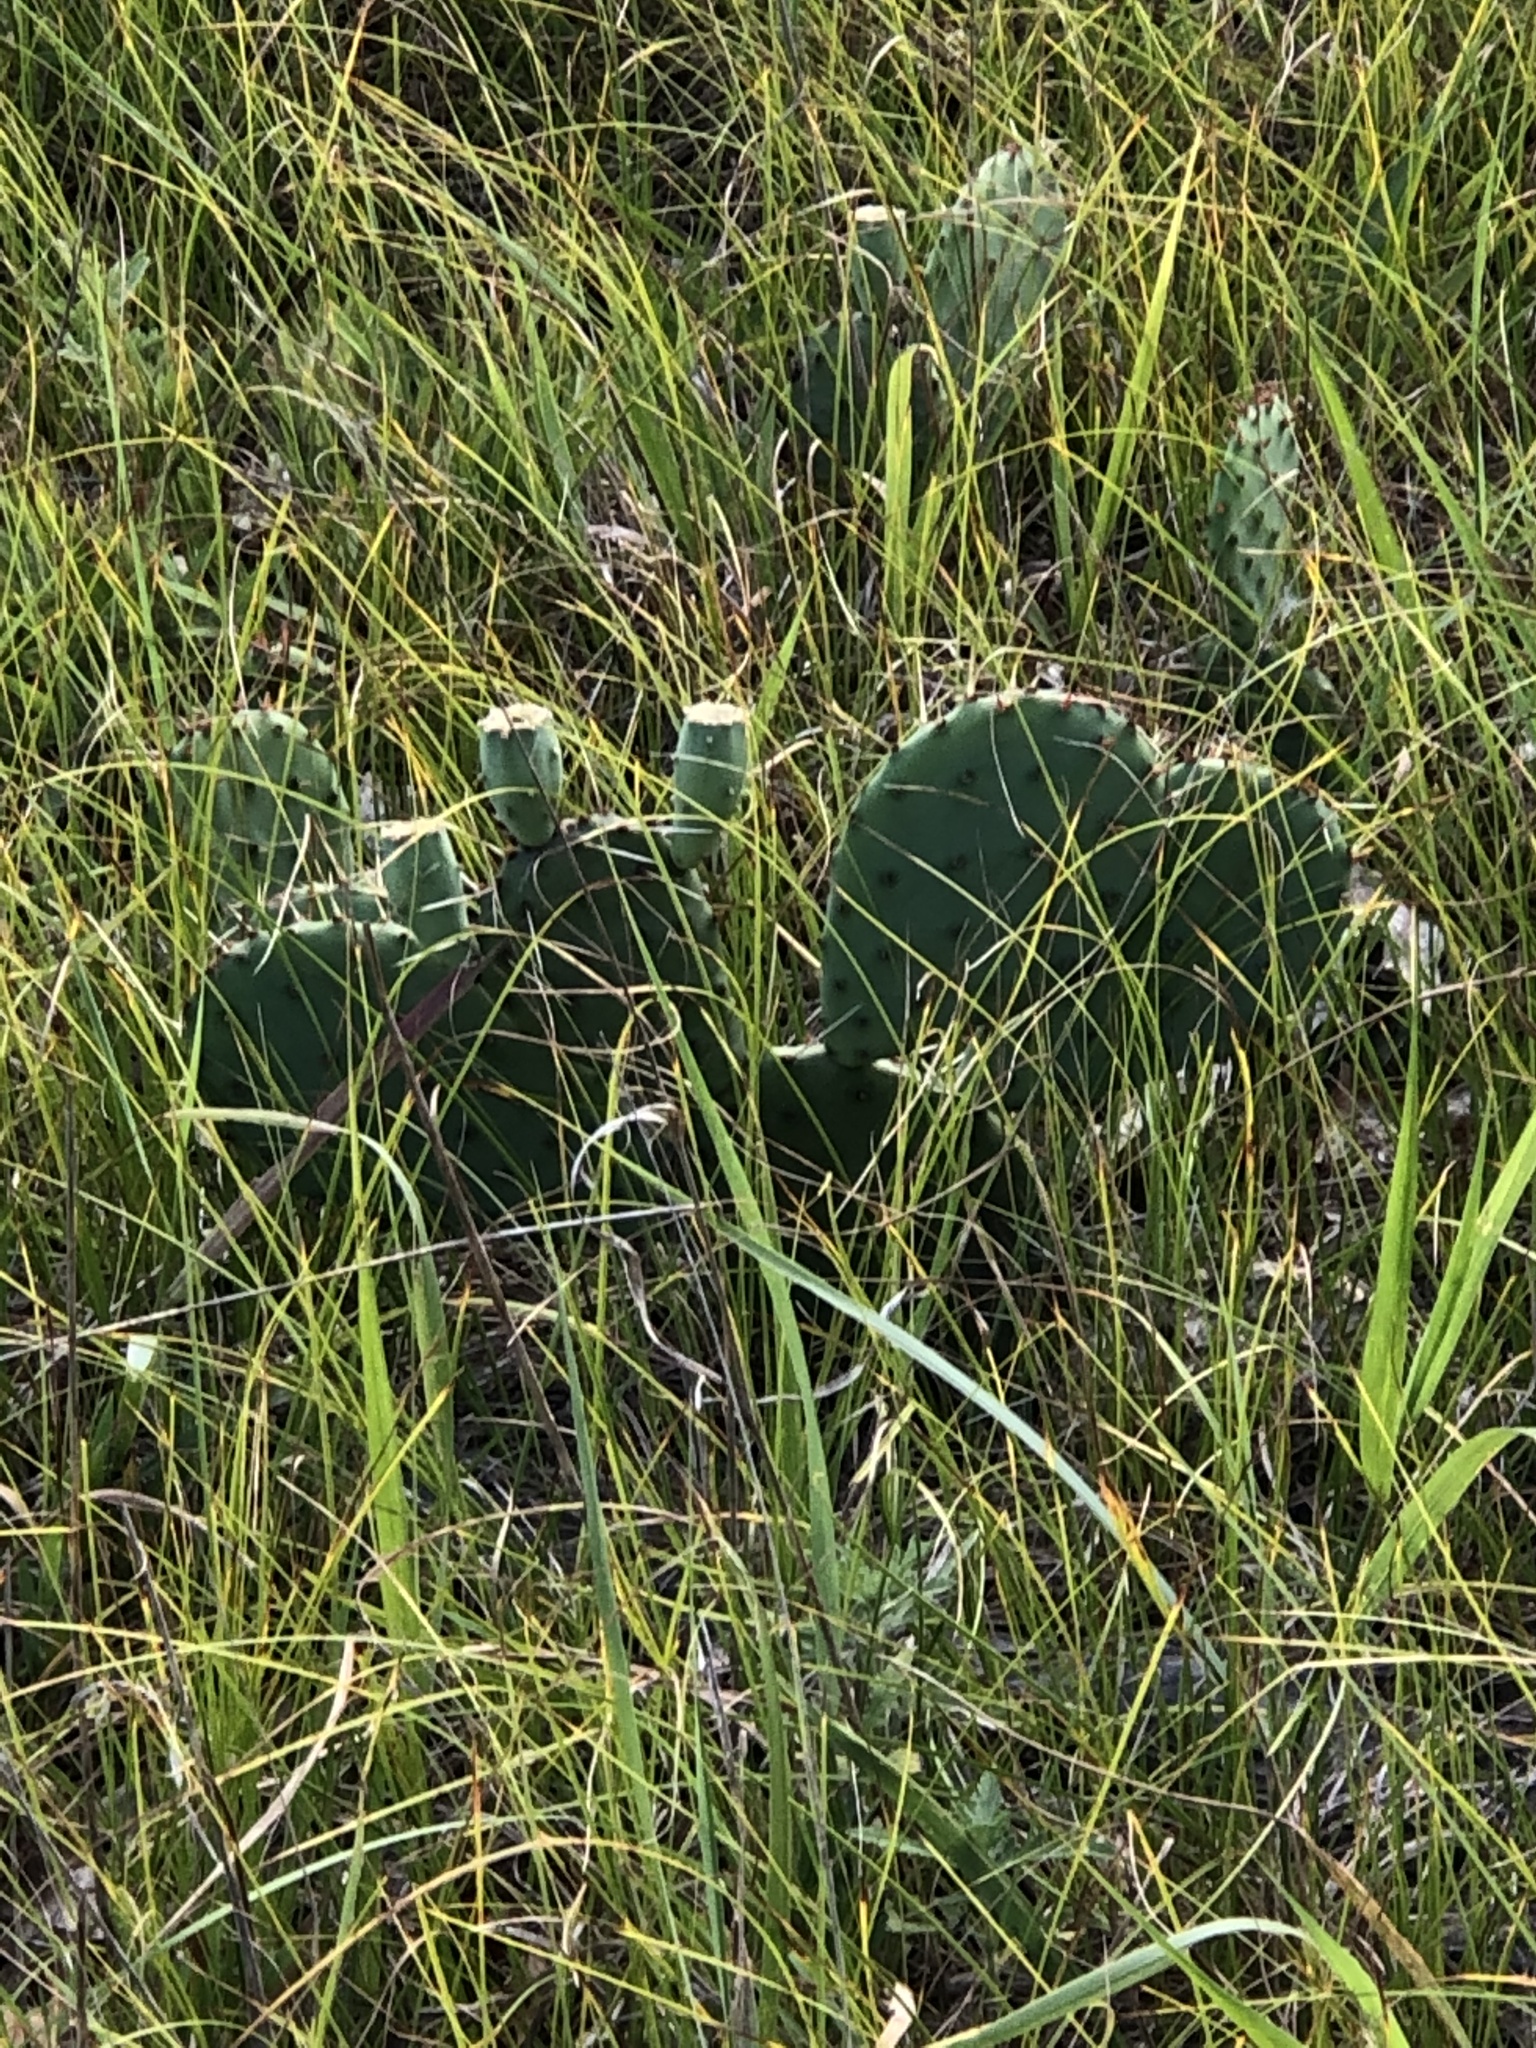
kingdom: Plantae
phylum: Tracheophyta
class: Magnoliopsida
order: Caryophyllales
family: Cactaceae
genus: Opuntia
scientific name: Opuntia humifusa
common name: Eastern prickly-pear
